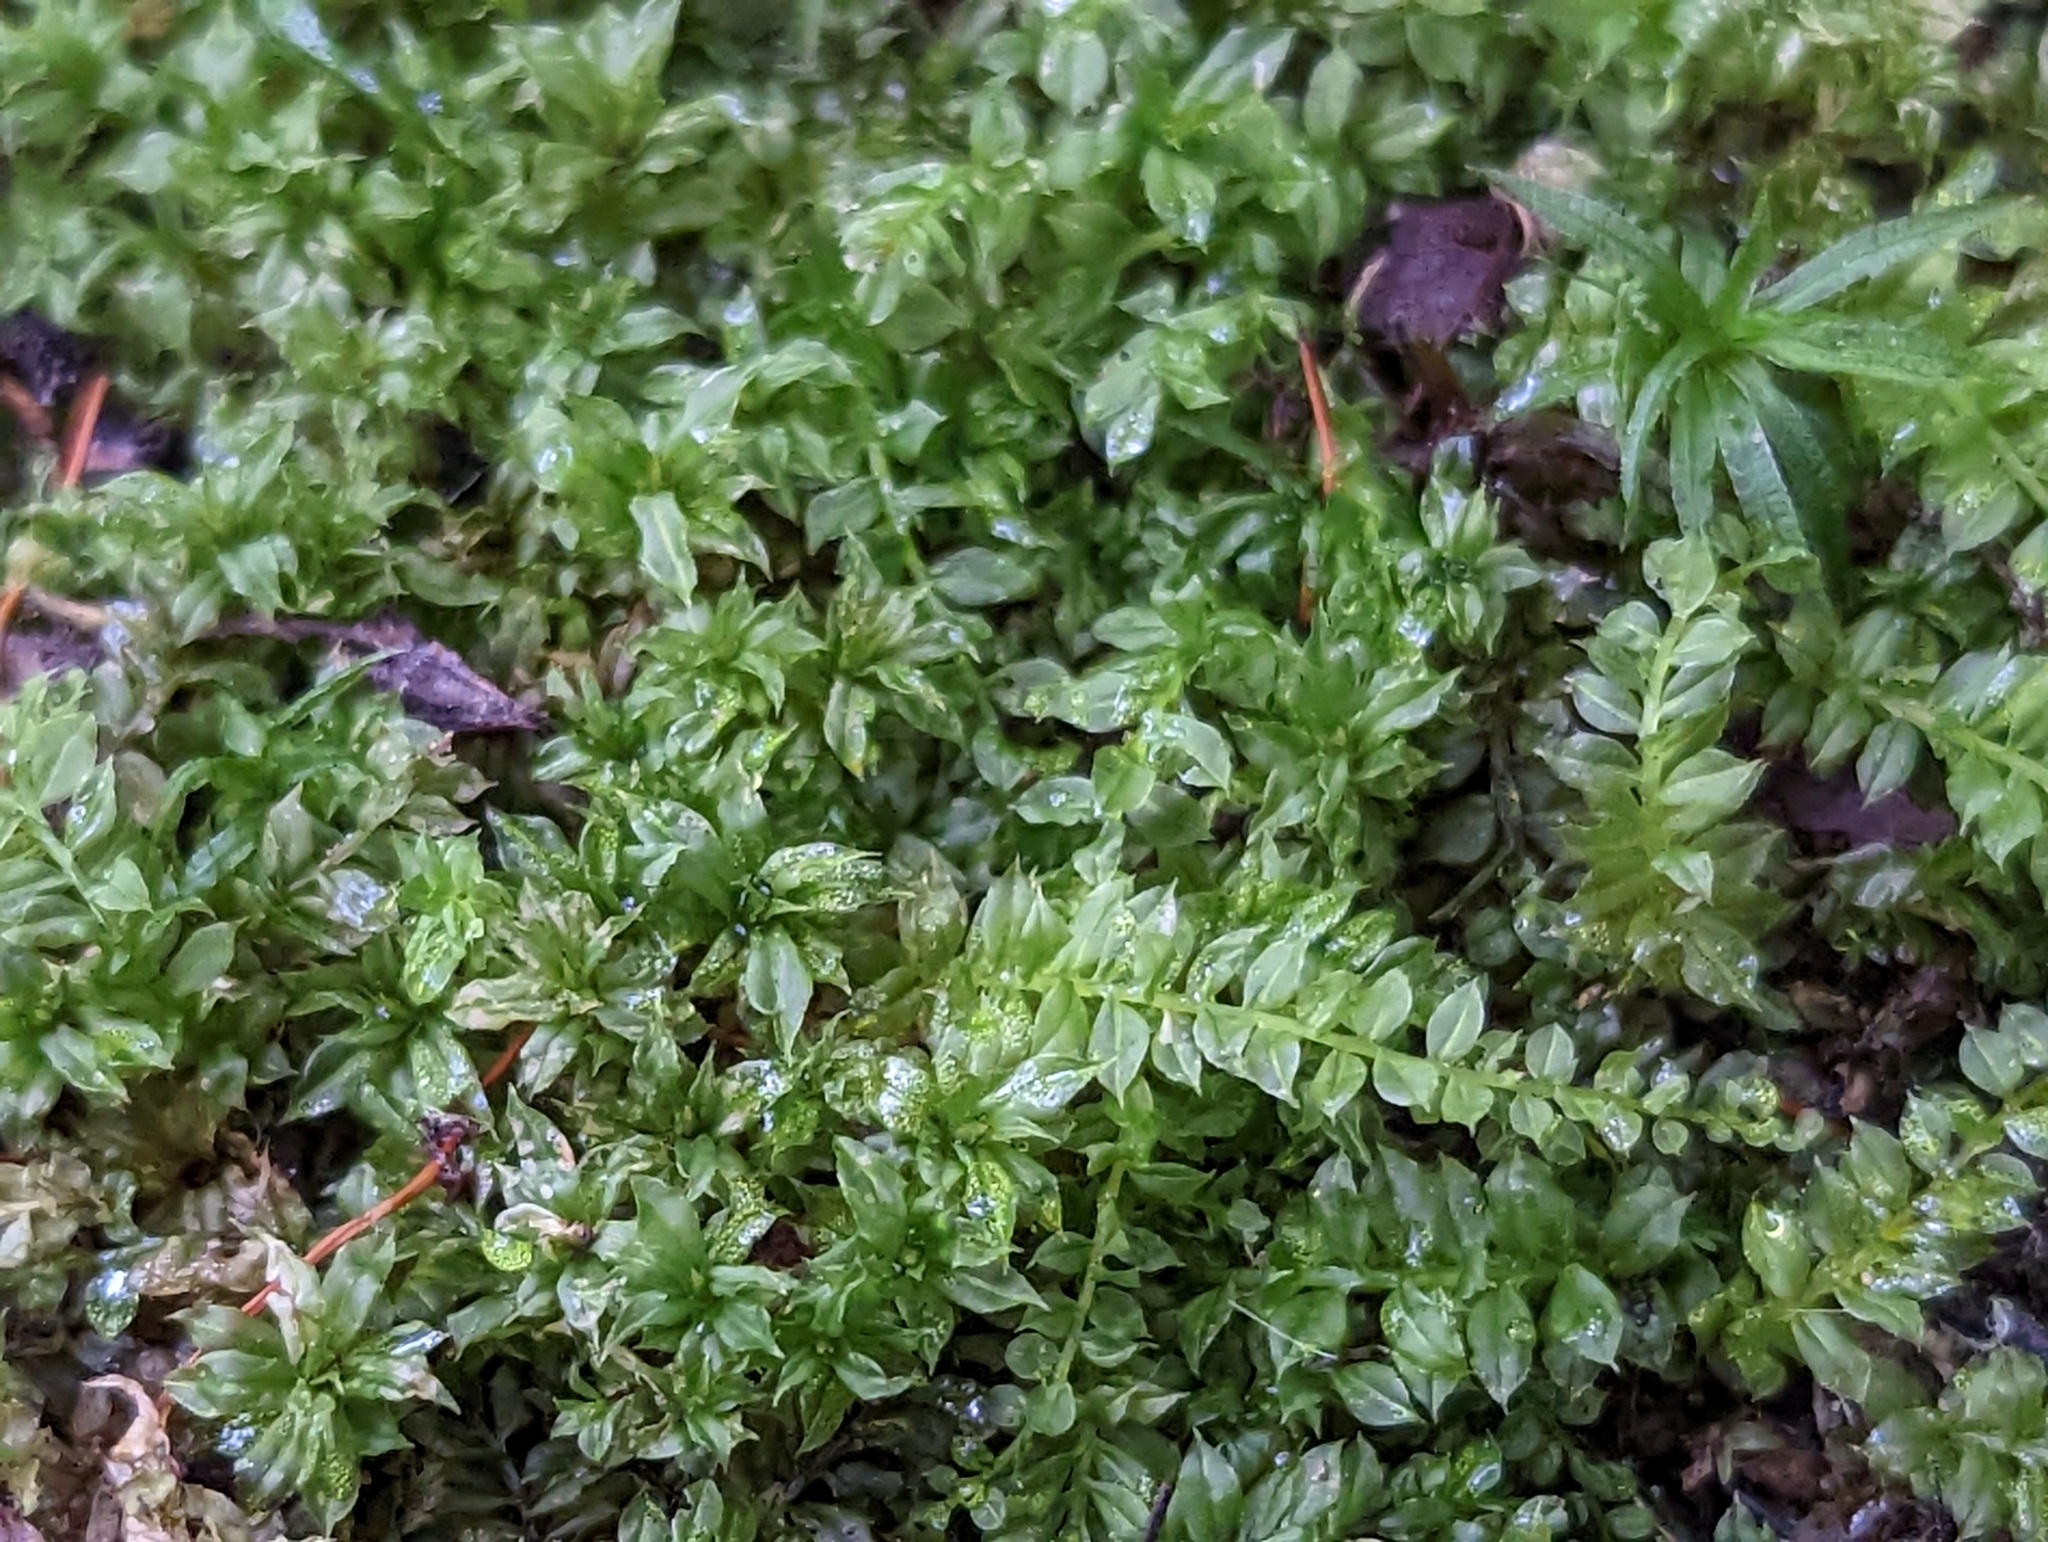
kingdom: Plantae
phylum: Bryophyta
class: Bryopsida
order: Bryales
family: Mniaceae
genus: Plagiomnium
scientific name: Plagiomnium cuspidatum
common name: Woodsy leafy moss
